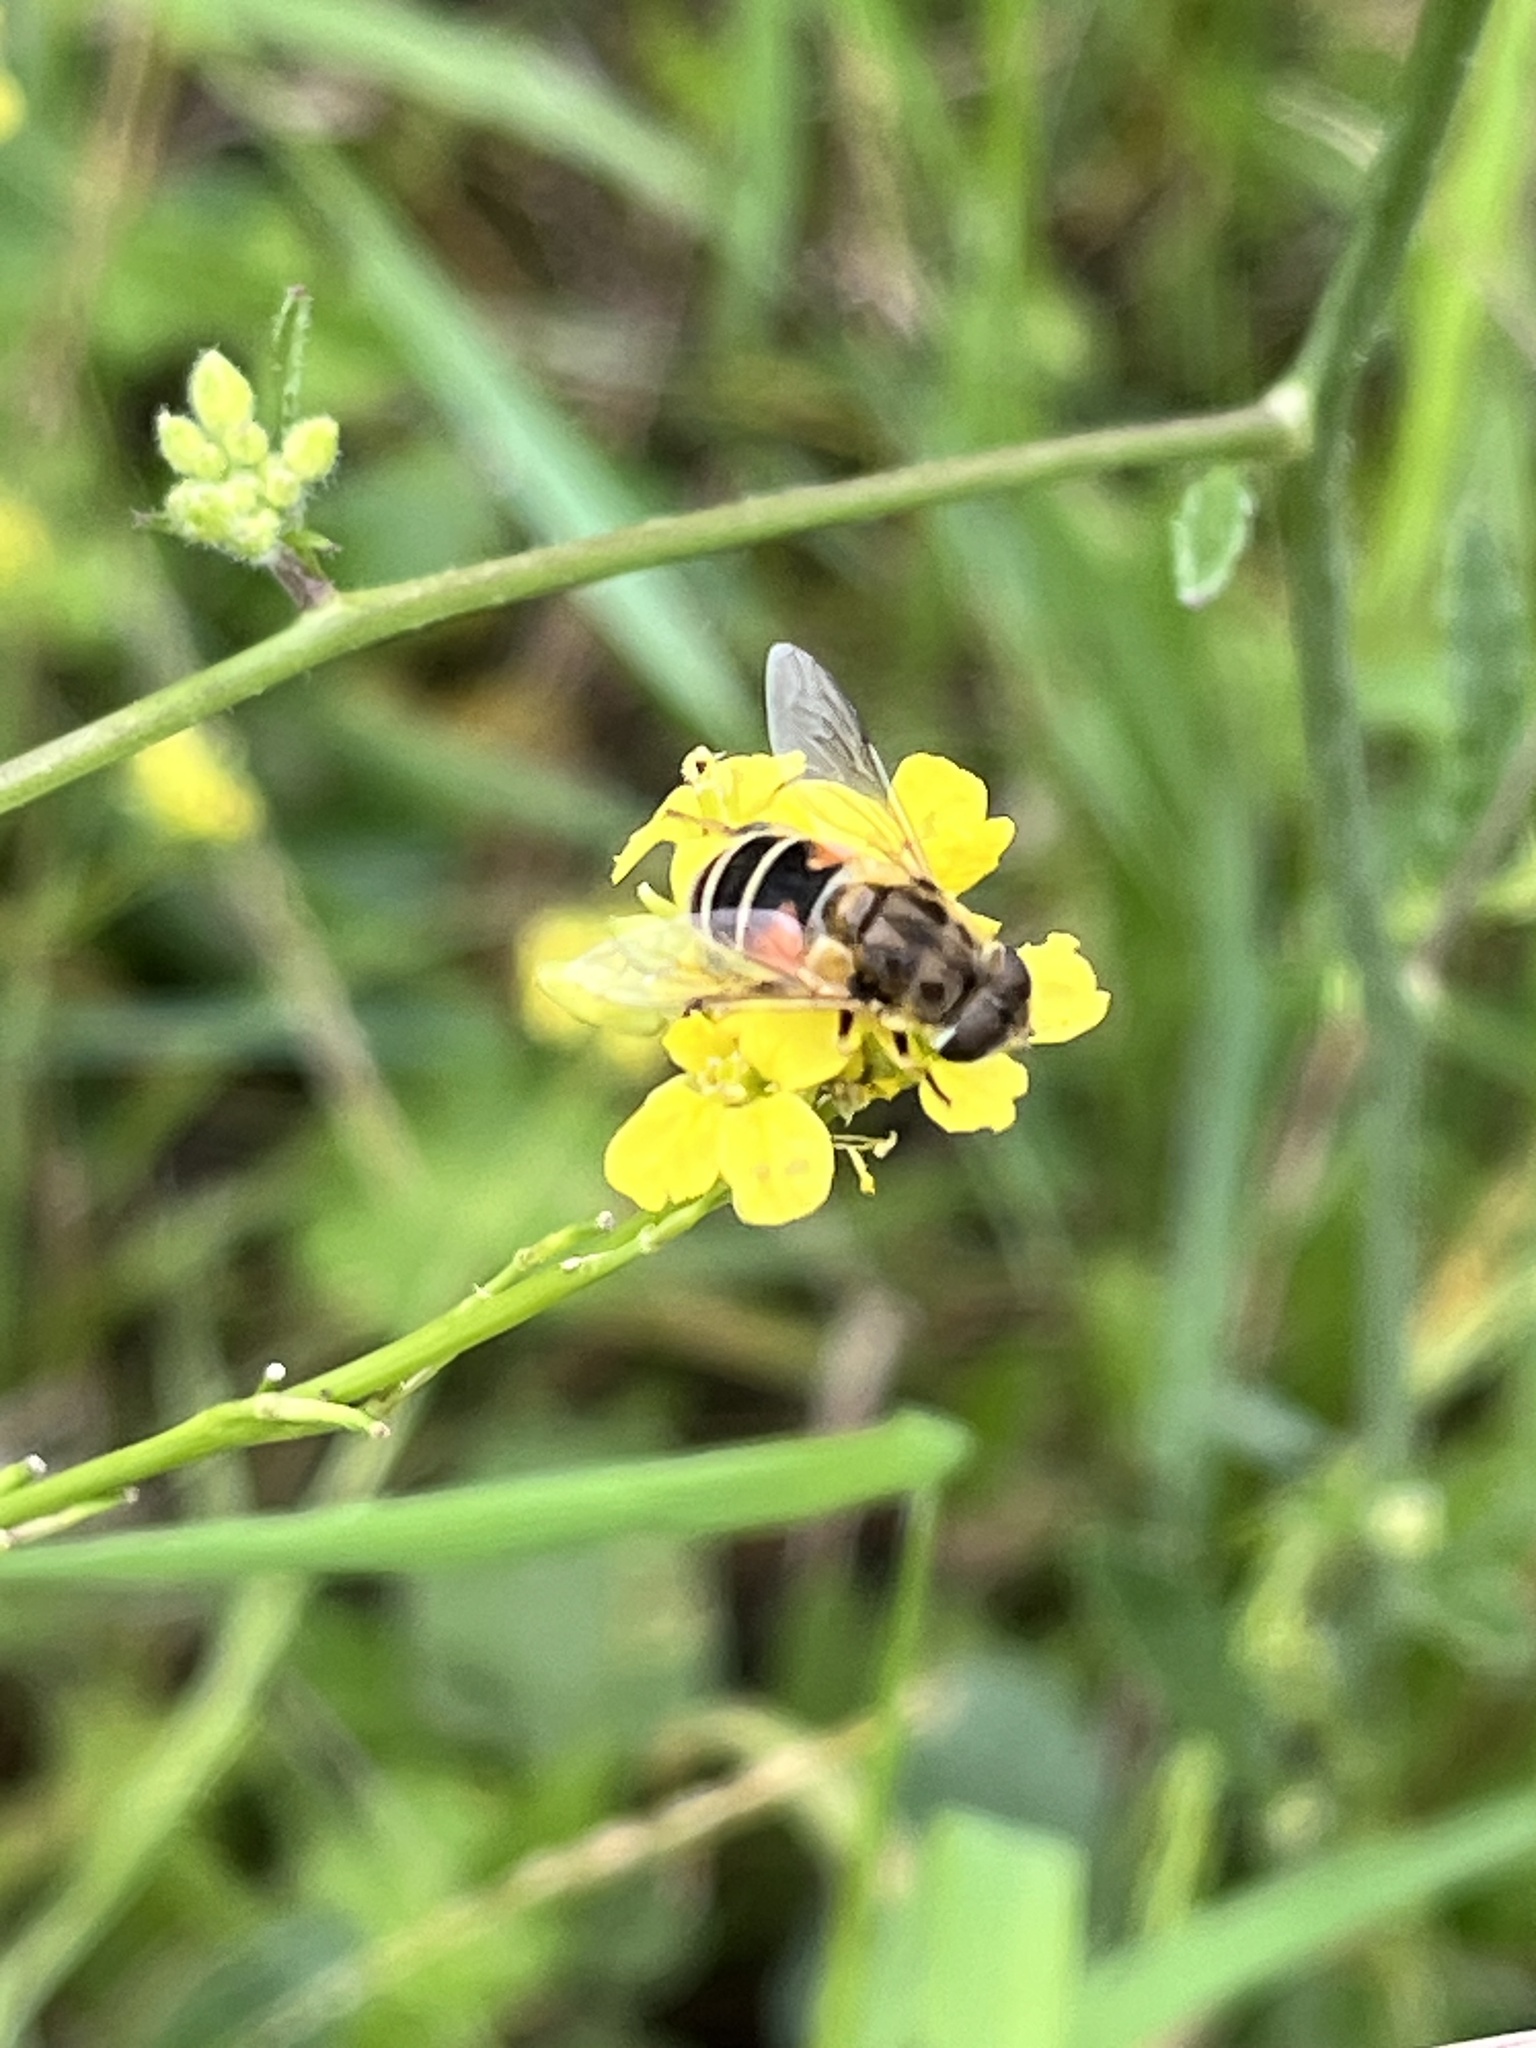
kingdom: Animalia
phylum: Arthropoda
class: Insecta
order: Diptera
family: Syrphidae
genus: Eoseristalis
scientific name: Eoseristalis
